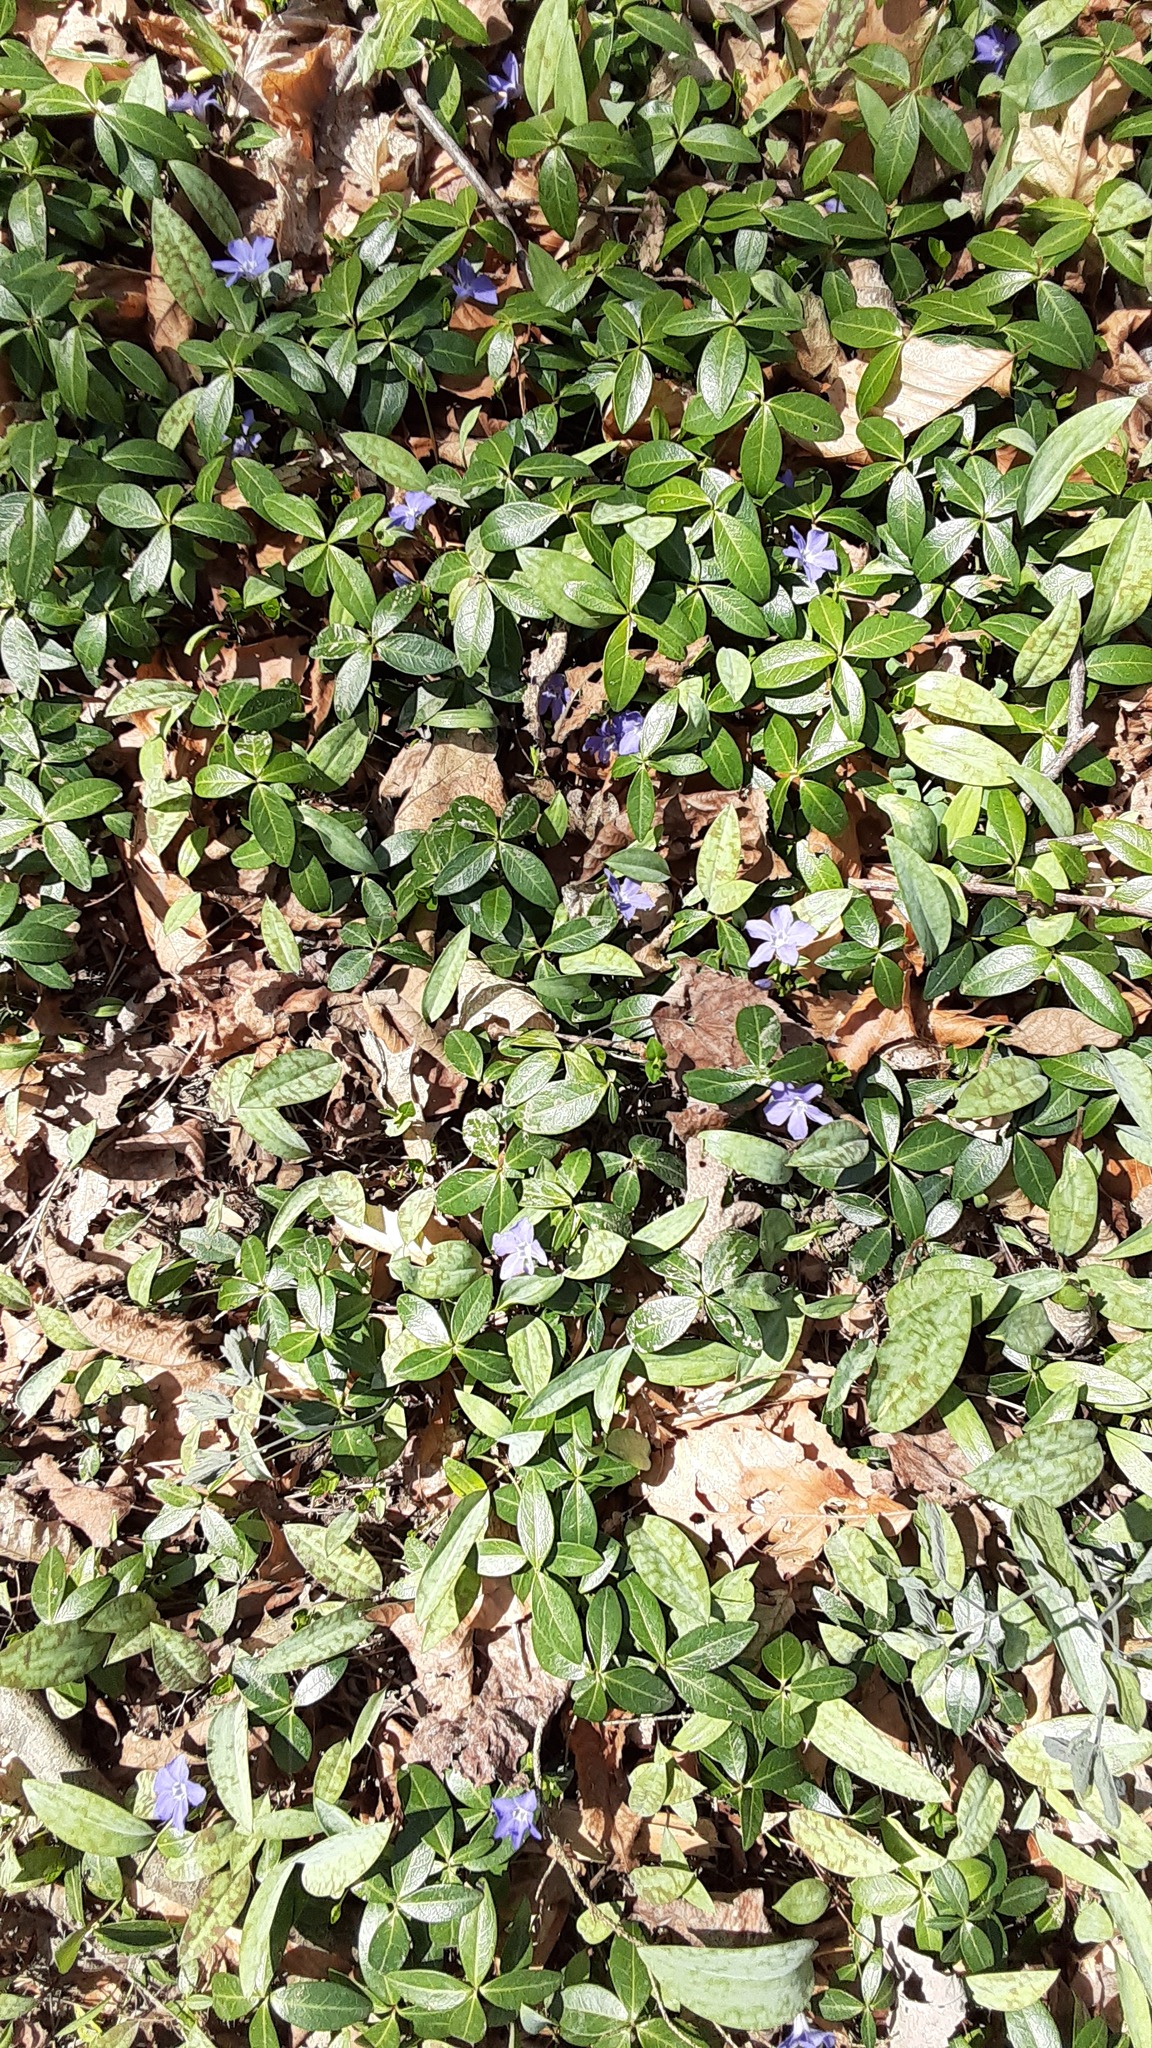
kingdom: Plantae
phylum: Tracheophyta
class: Magnoliopsida
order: Gentianales
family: Apocynaceae
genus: Vinca
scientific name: Vinca minor
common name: Lesser periwinkle
